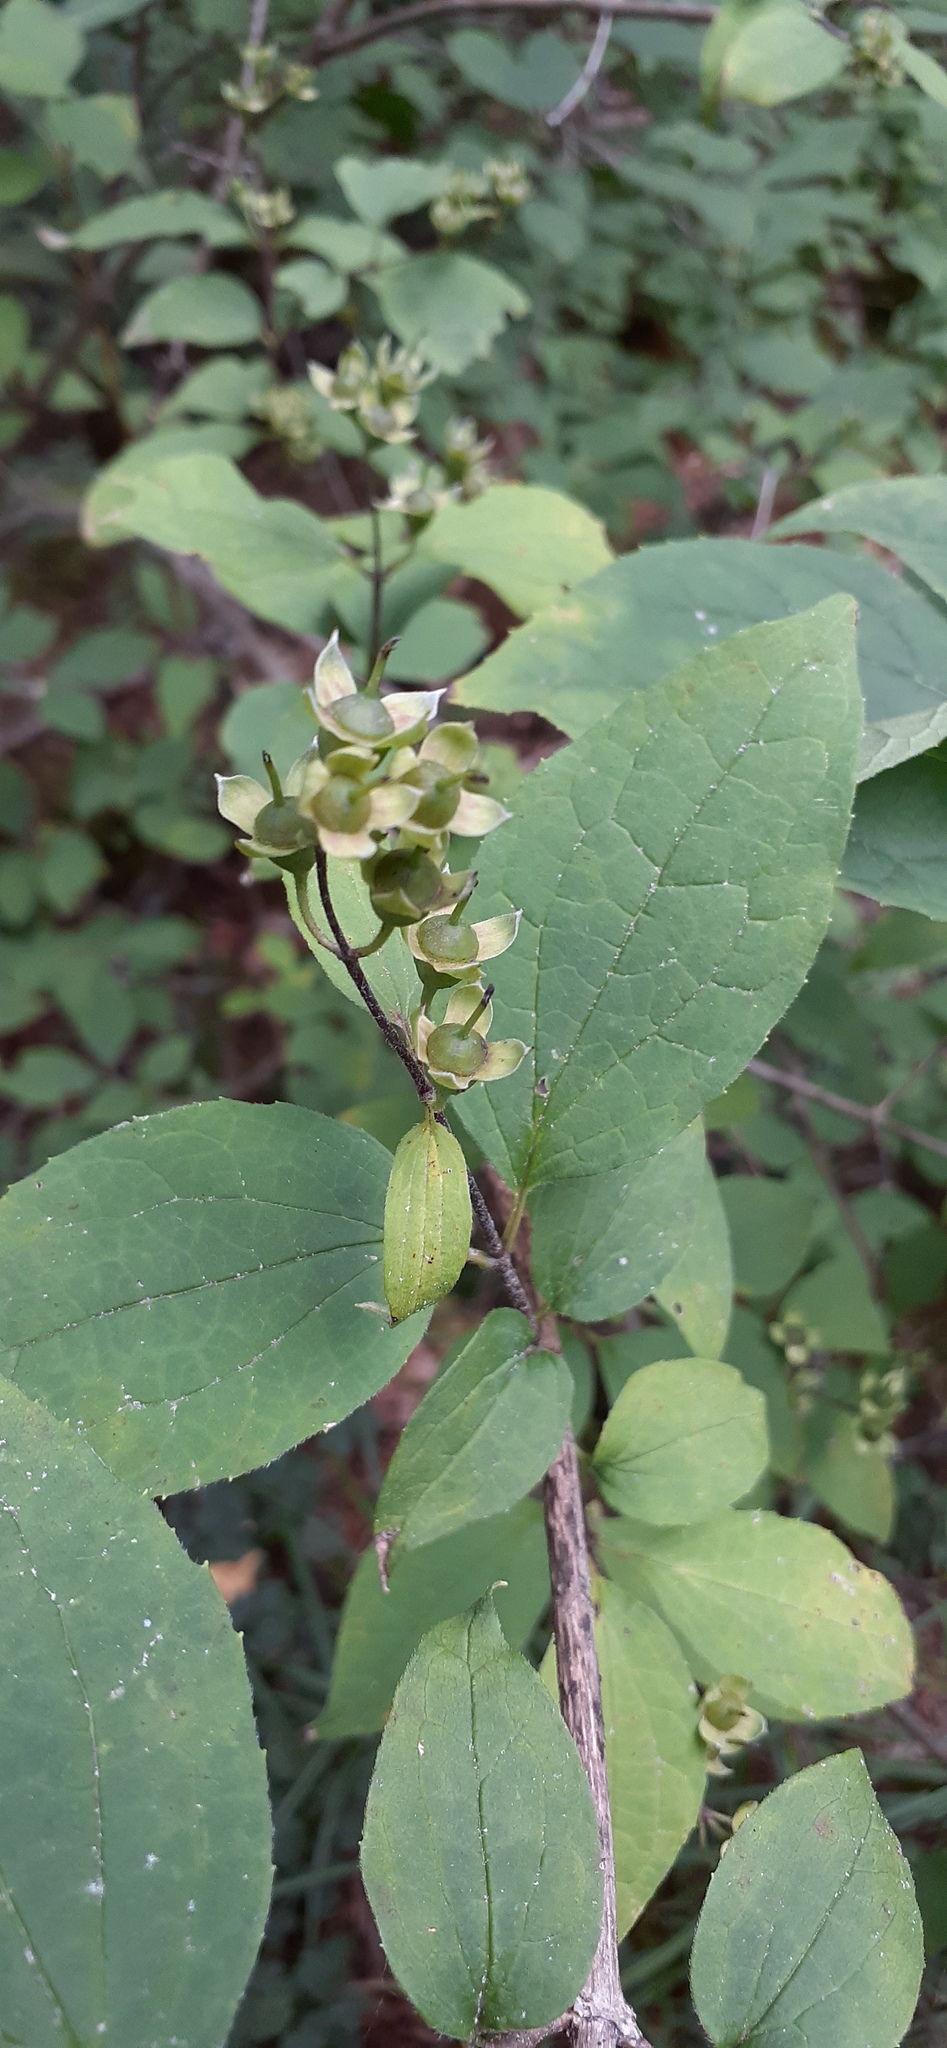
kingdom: Plantae
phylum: Tracheophyta
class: Magnoliopsida
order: Cornales
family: Hydrangeaceae
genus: Philadelphus
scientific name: Philadelphus tenuifolius
